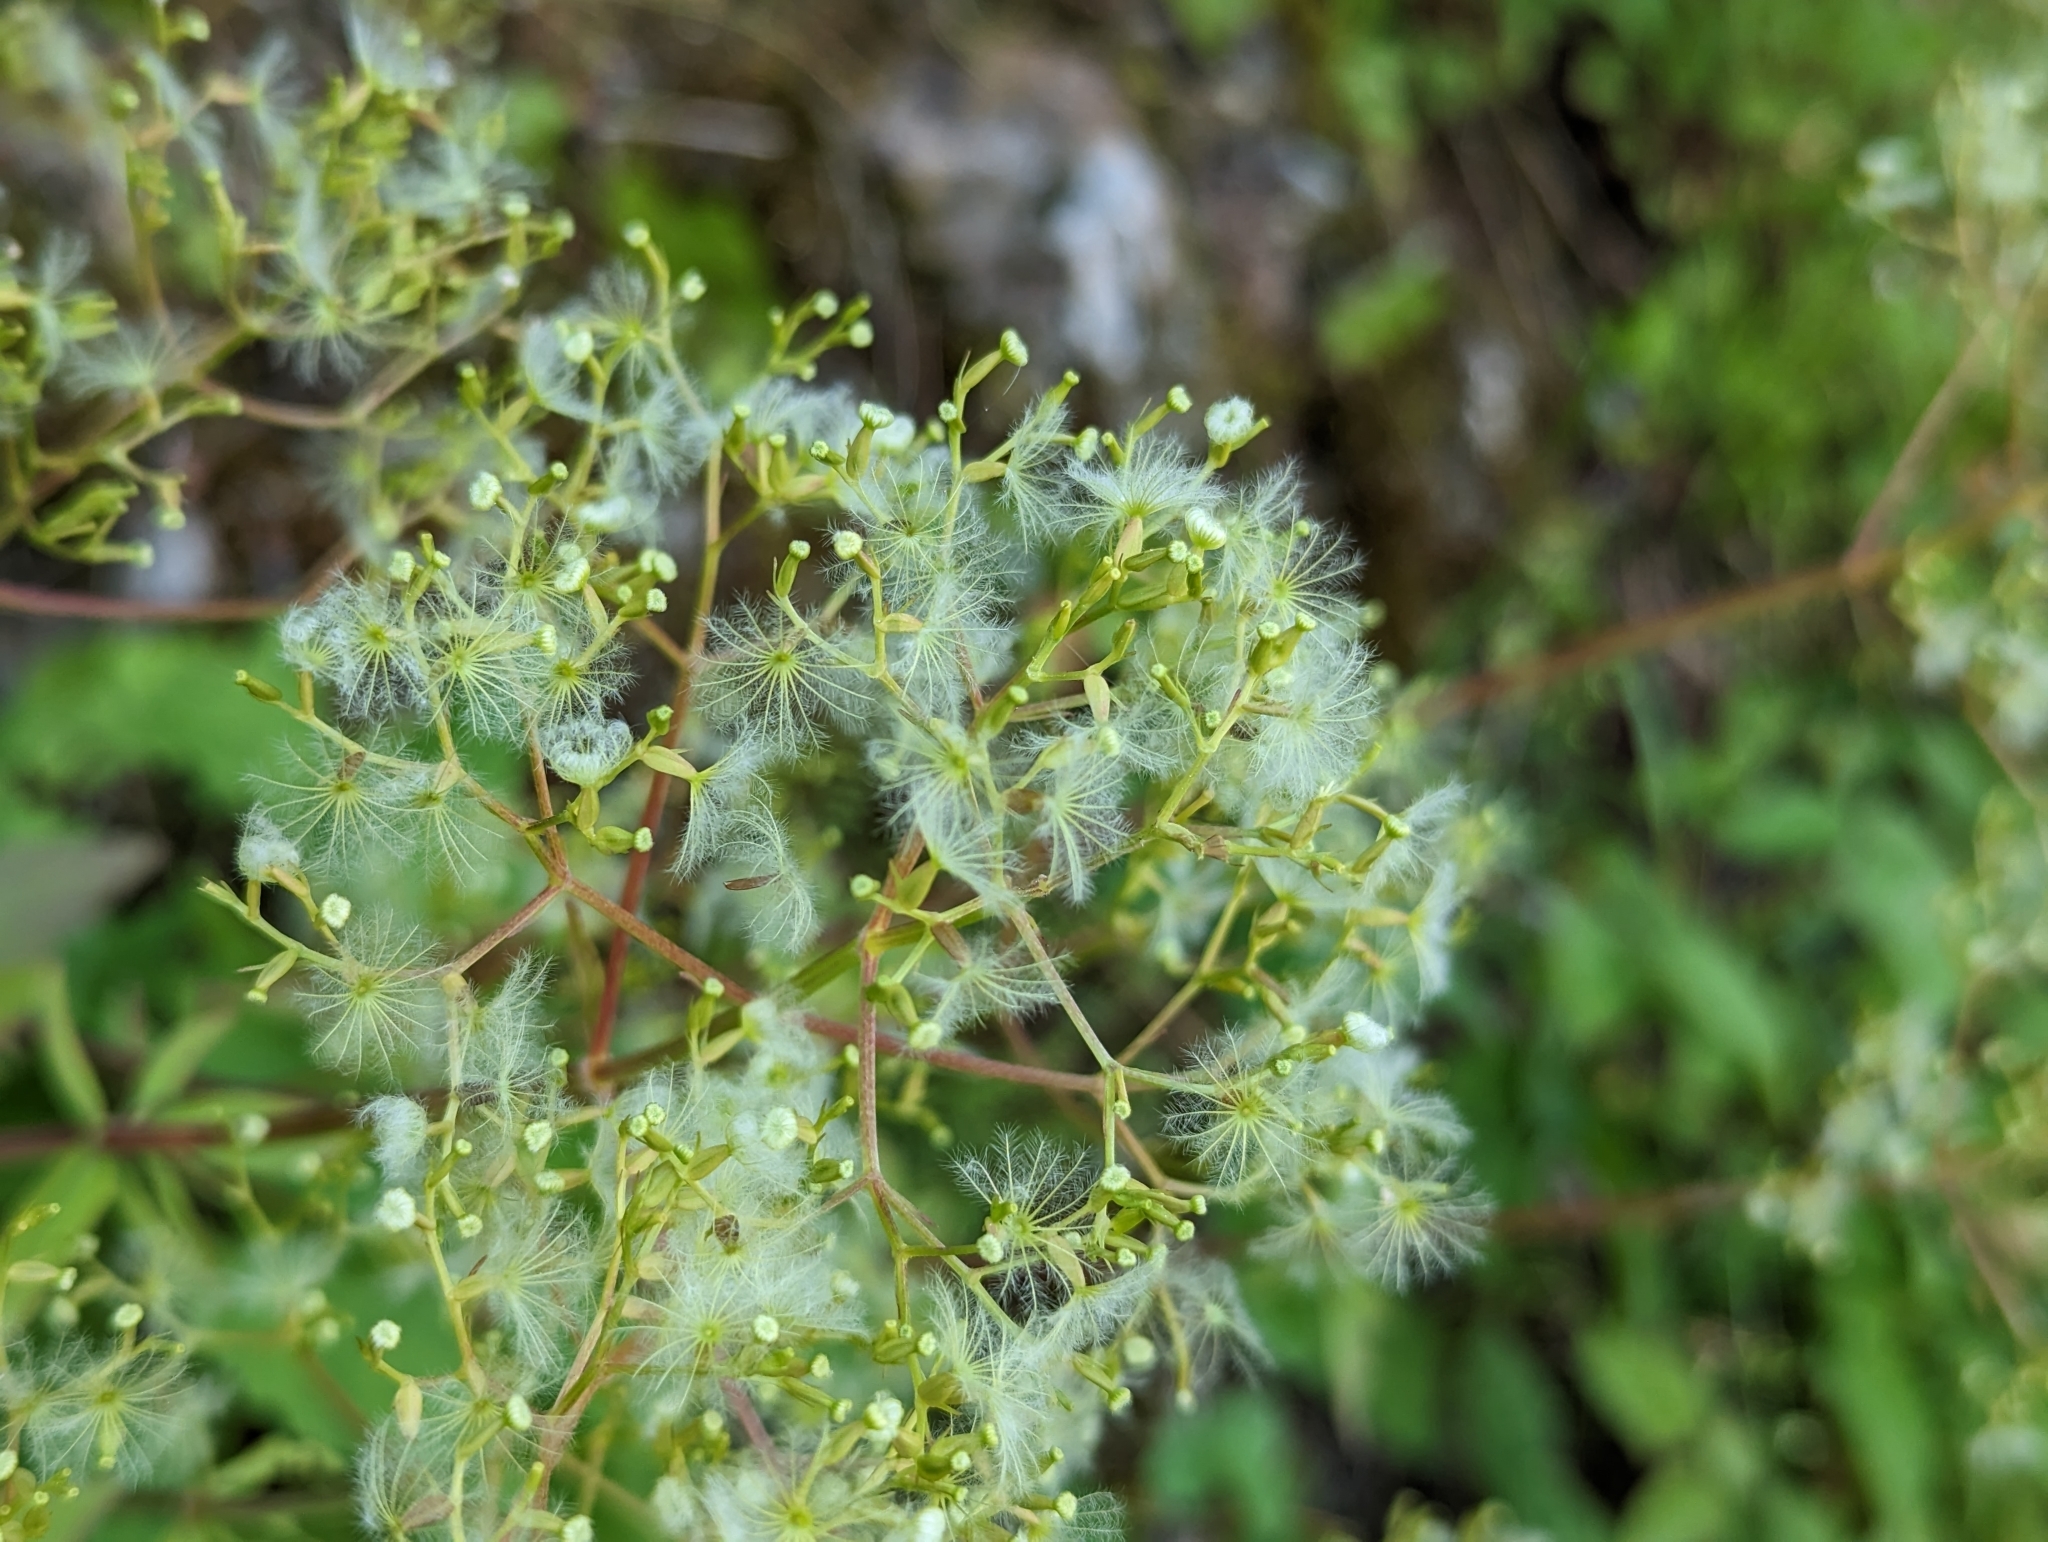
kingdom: Plantae
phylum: Tracheophyta
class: Magnoliopsida
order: Dipsacales
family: Caprifoliaceae
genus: Valeriana
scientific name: Valeriana tripteris
